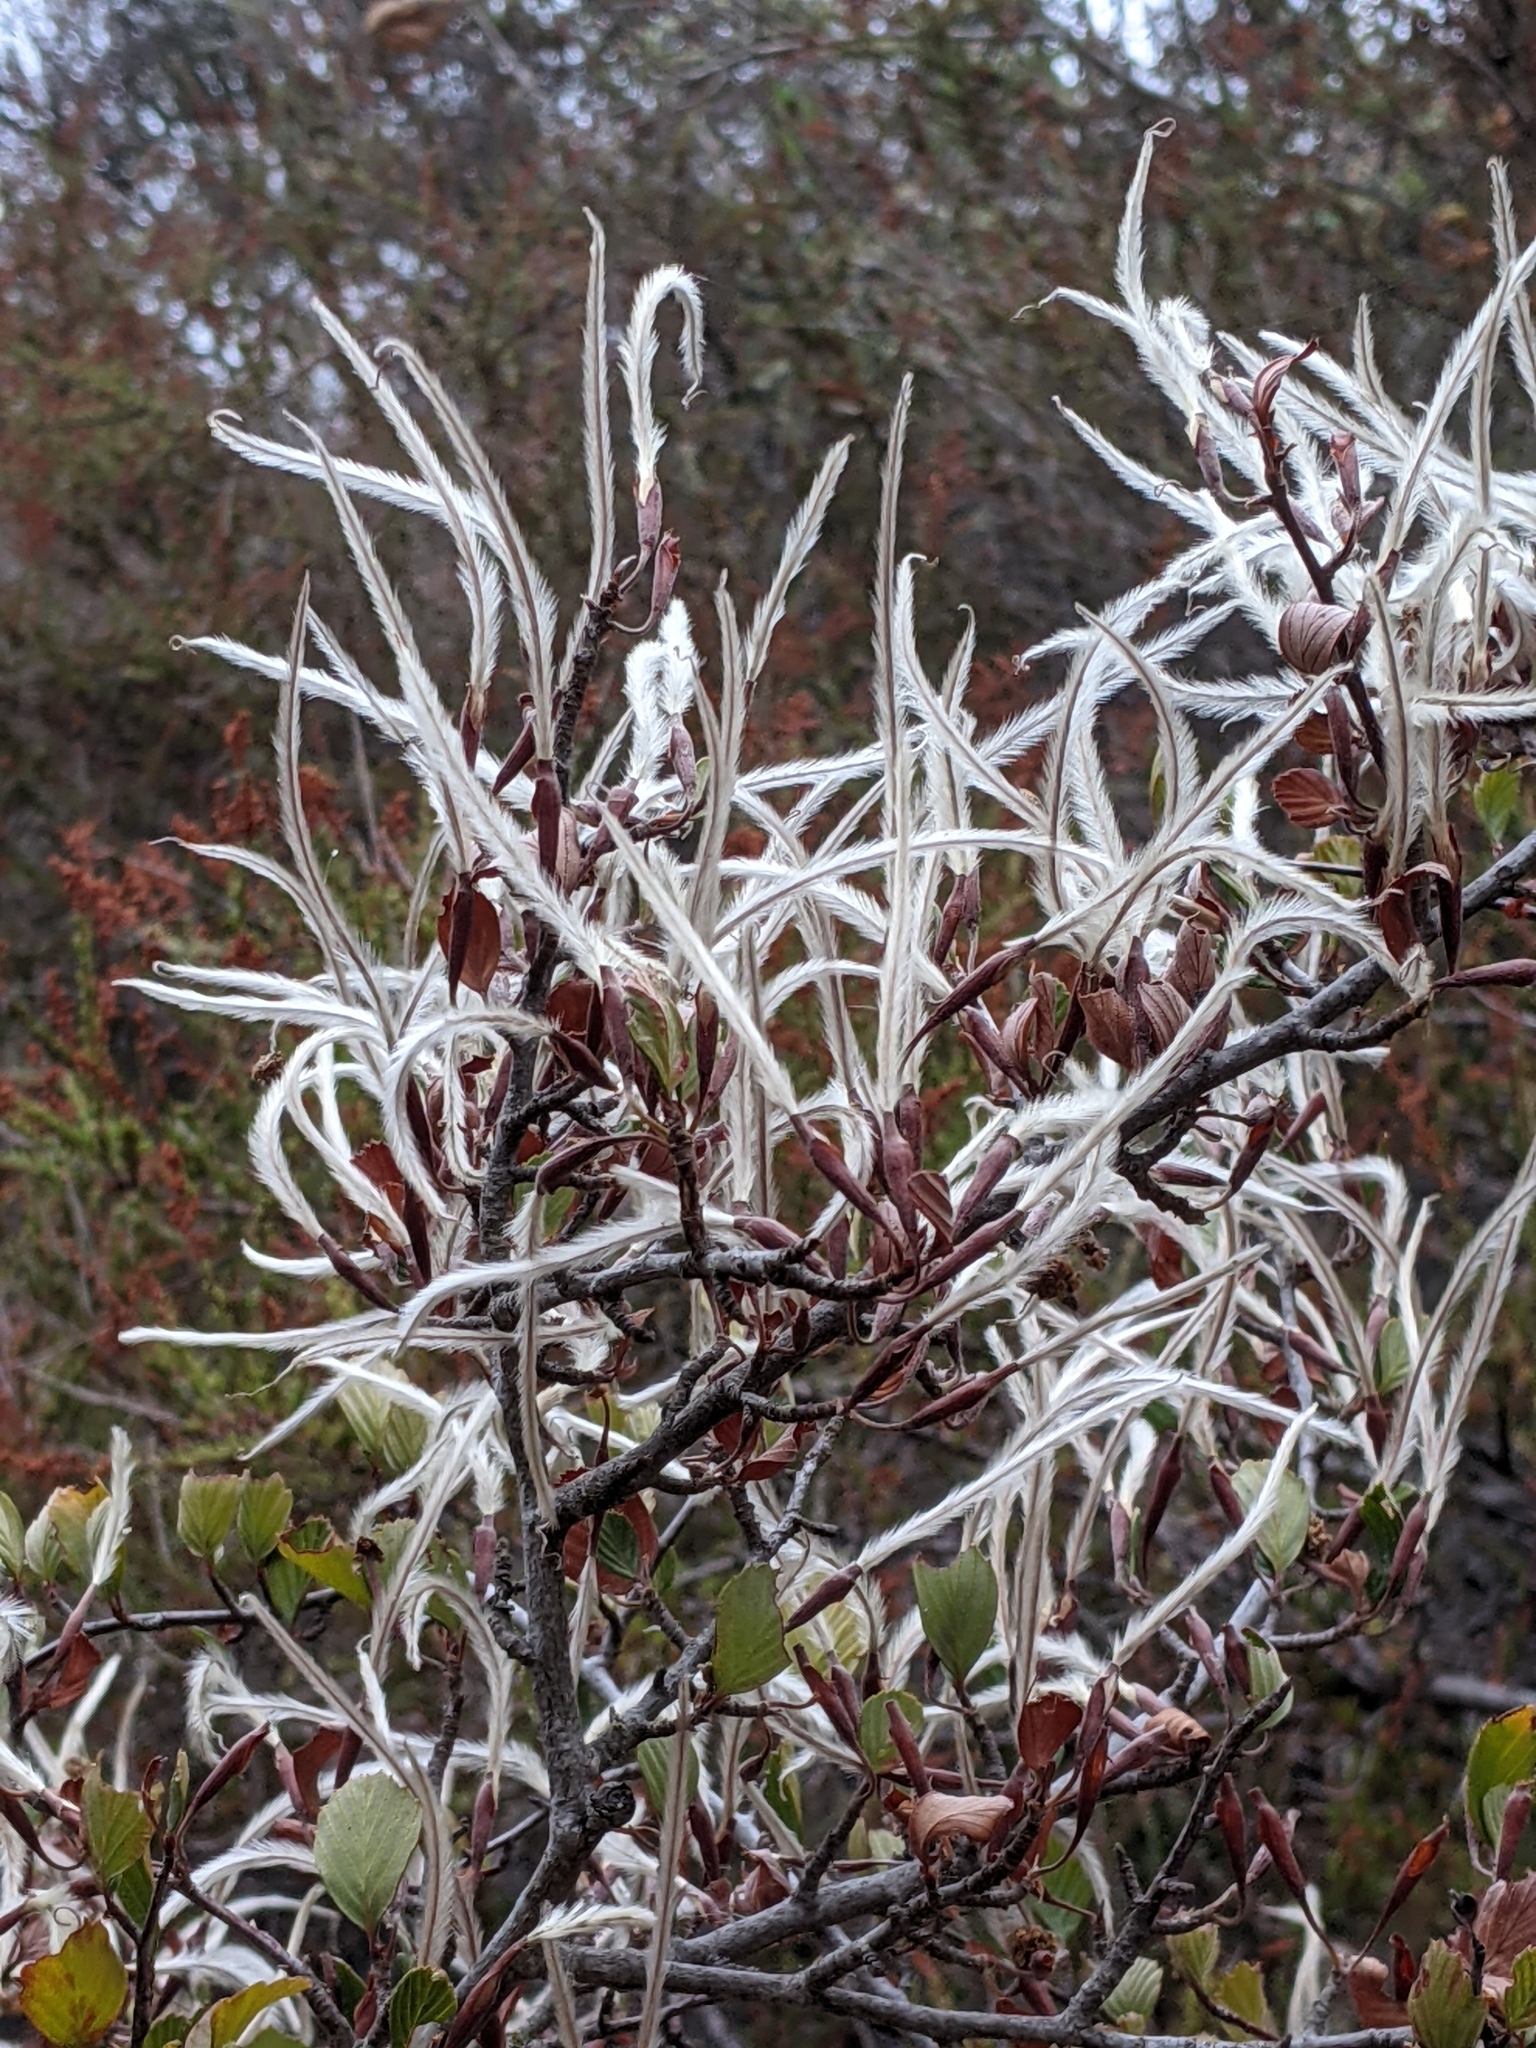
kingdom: Plantae
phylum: Tracheophyta
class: Magnoliopsida
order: Rosales
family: Rosaceae
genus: Cercocarpus
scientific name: Cercocarpus betuloides
